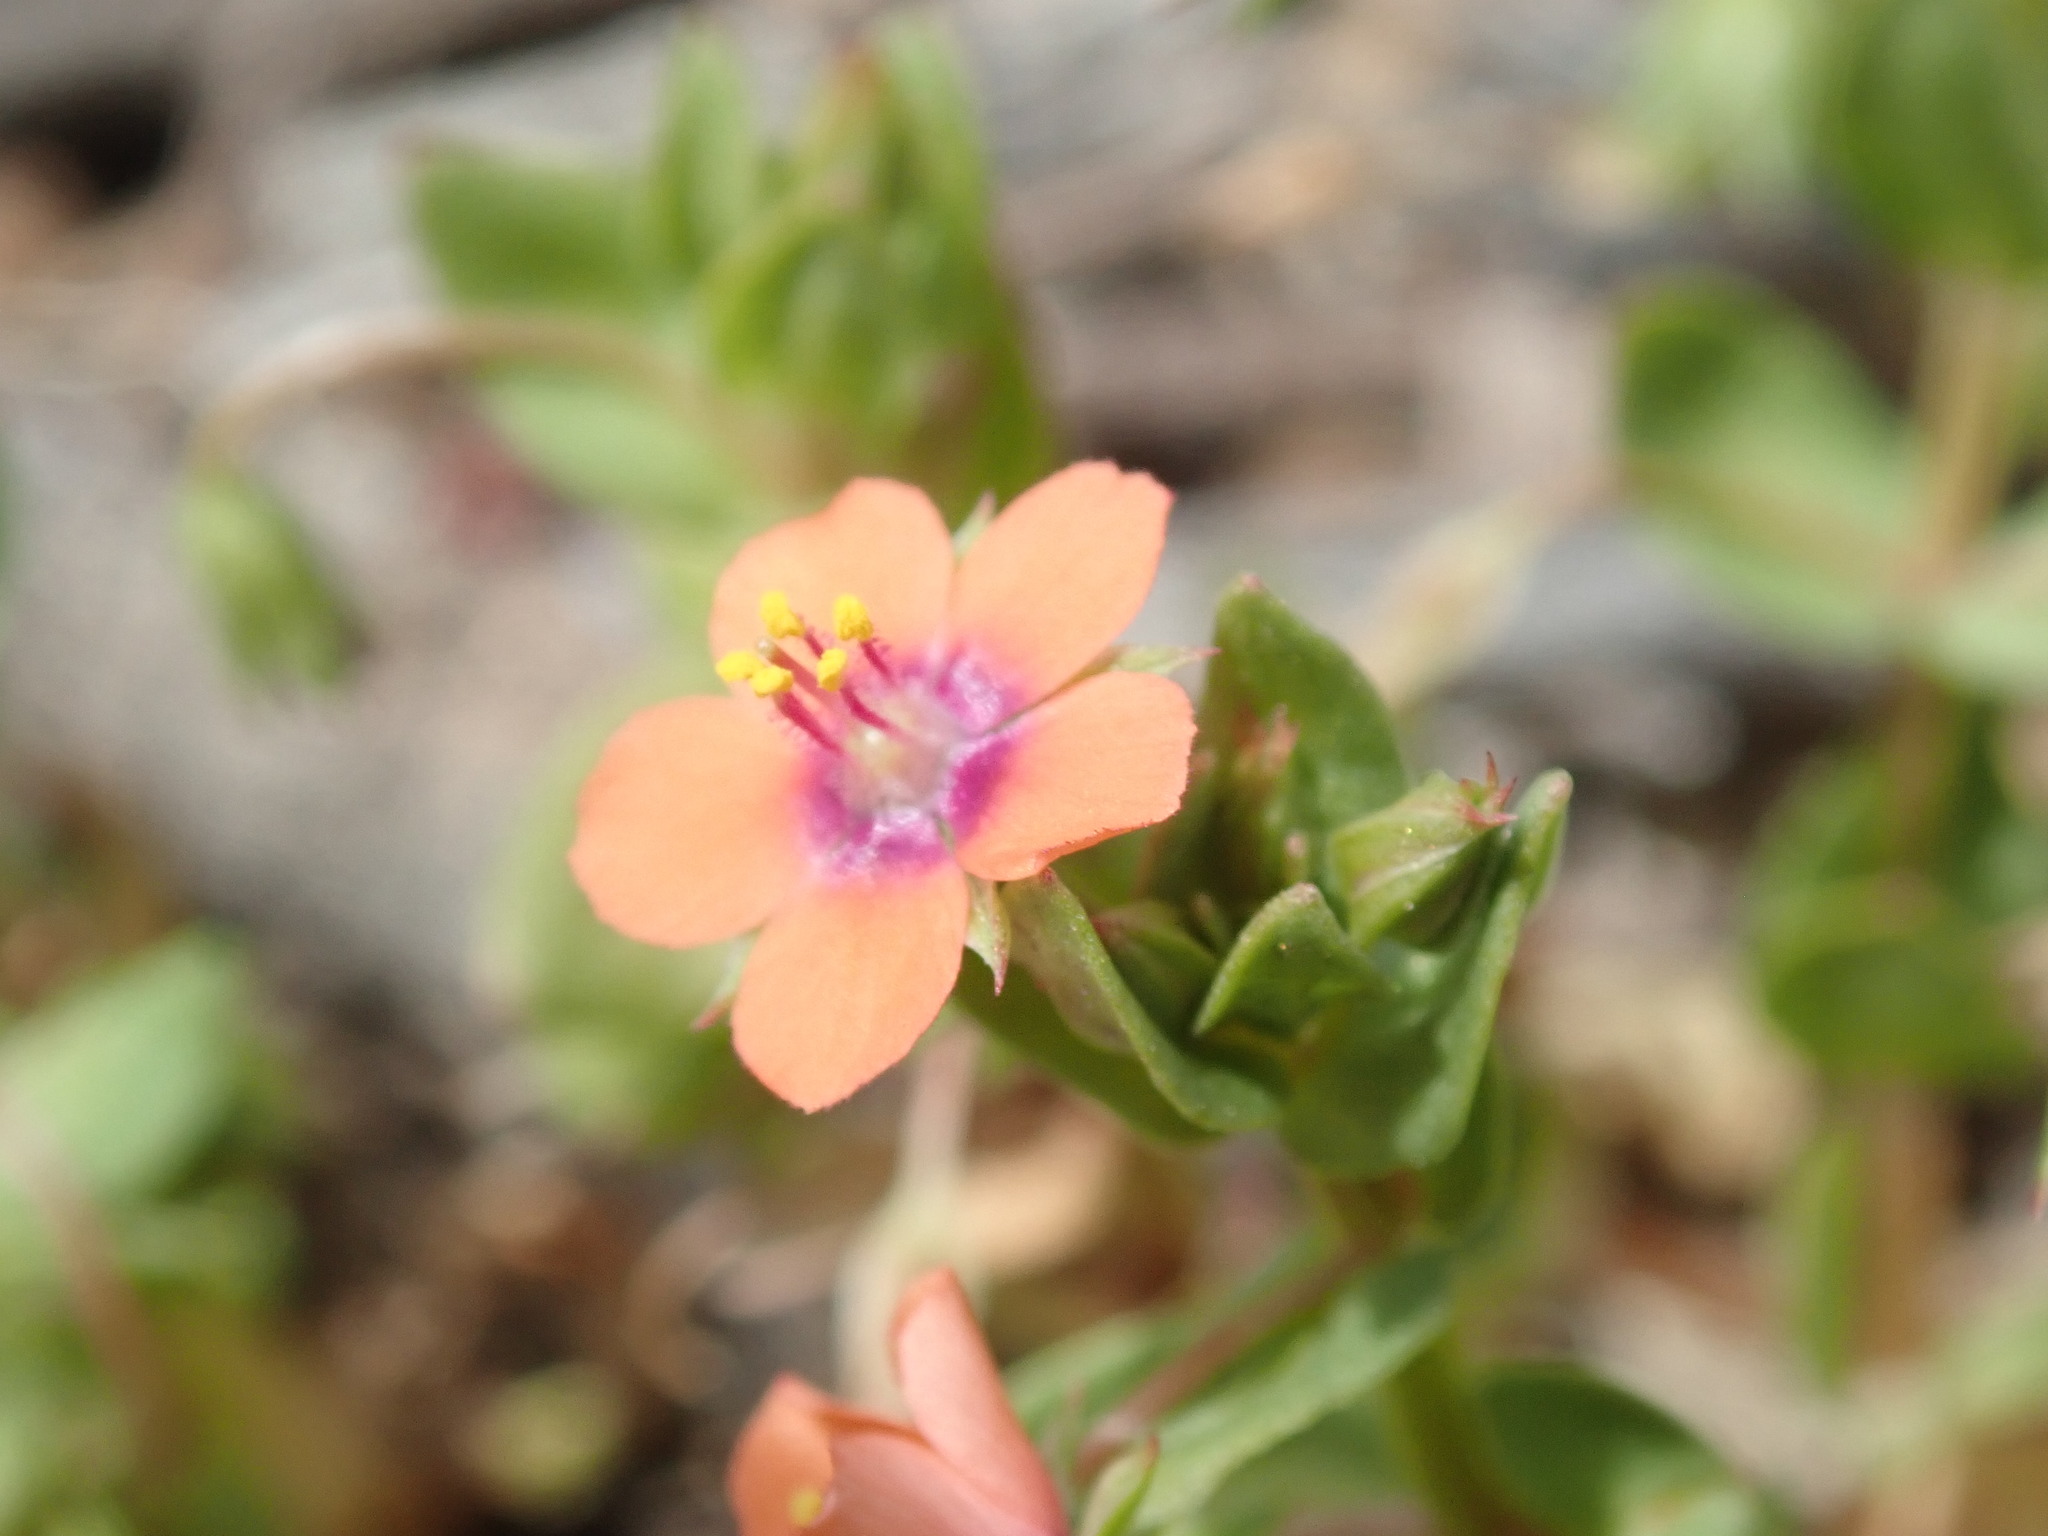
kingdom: Plantae
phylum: Tracheophyta
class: Magnoliopsida
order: Ericales
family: Primulaceae
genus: Lysimachia
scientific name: Lysimachia arvensis
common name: Scarlet pimpernel
